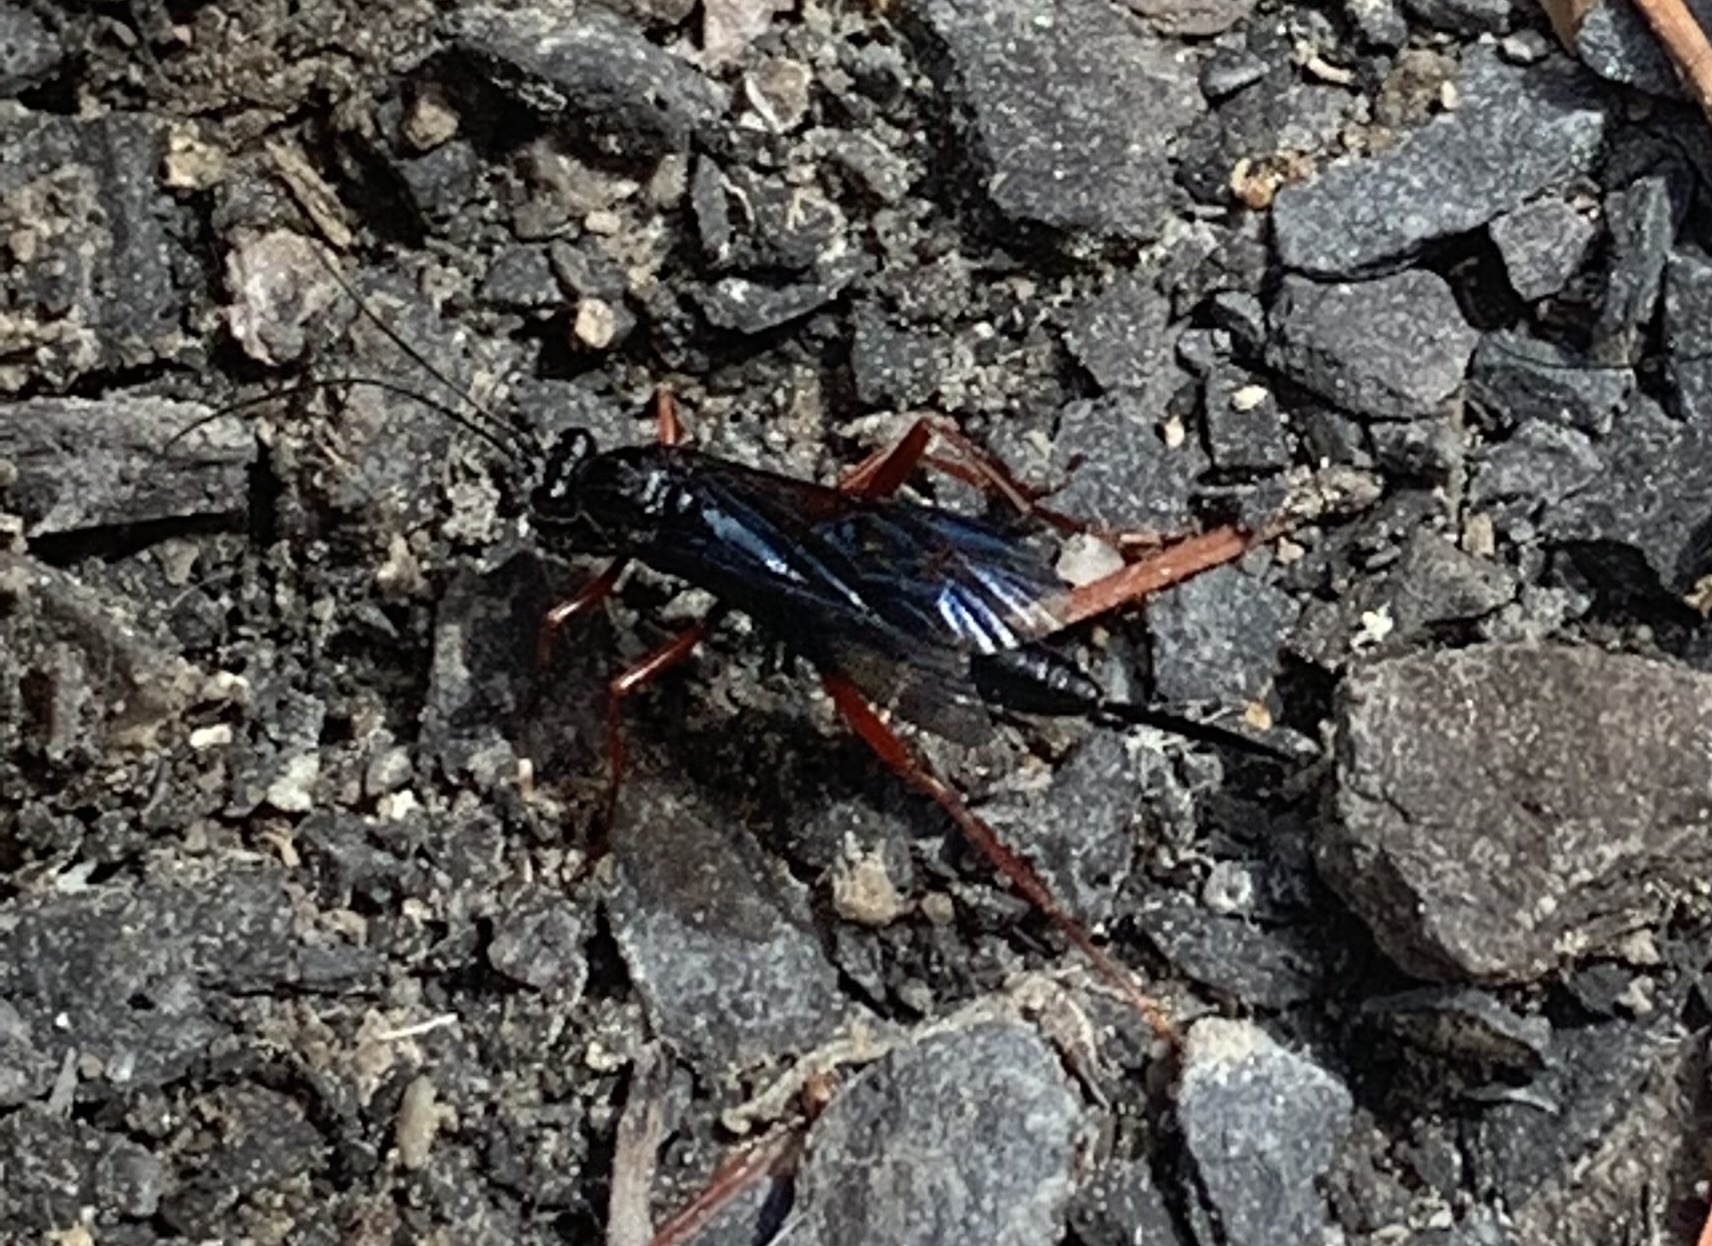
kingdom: Animalia
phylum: Arthropoda
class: Insecta
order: Hymenoptera
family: Ichneumonidae
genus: Buathra
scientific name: Buathra laborator
